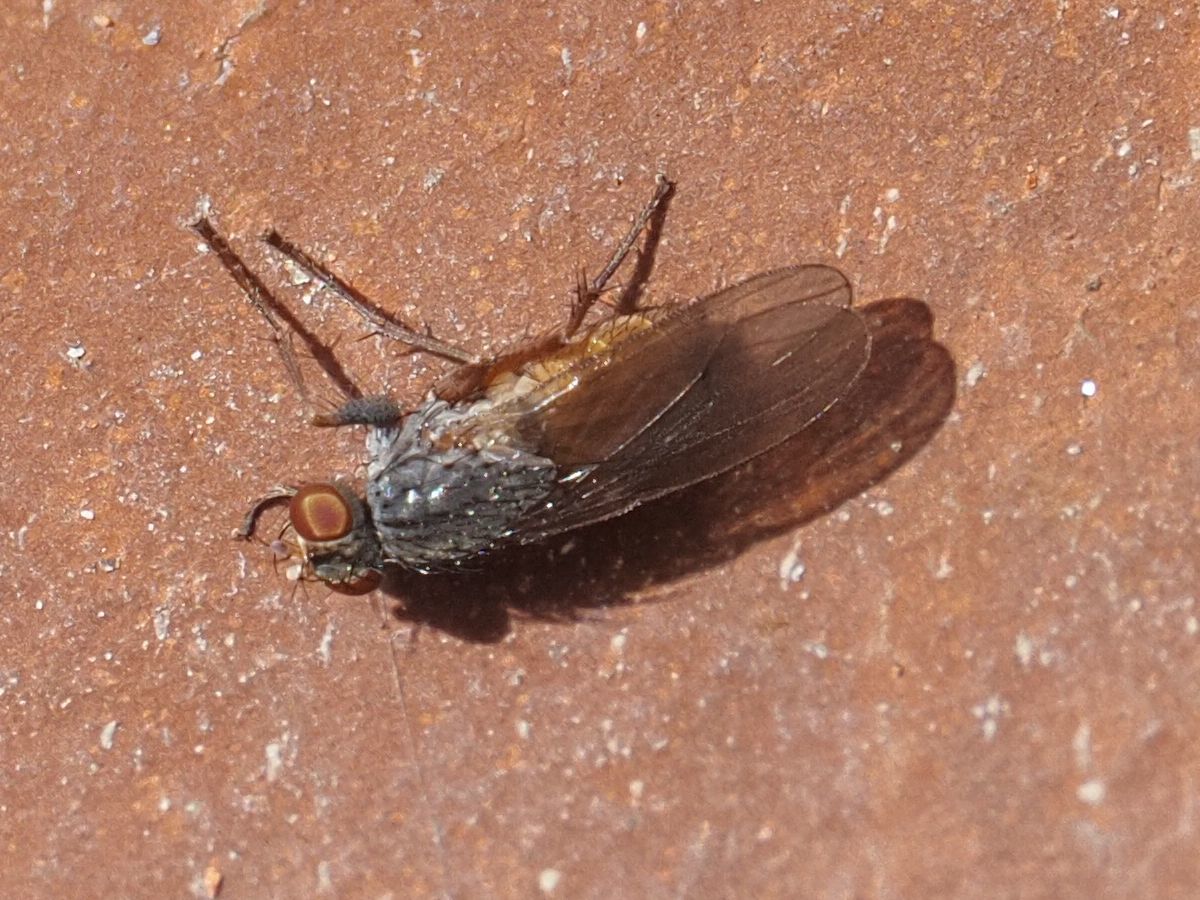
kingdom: Animalia
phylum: Arthropoda
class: Insecta
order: Diptera
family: Muscidae
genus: Lispocephala
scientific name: Lispocephala brachialis
